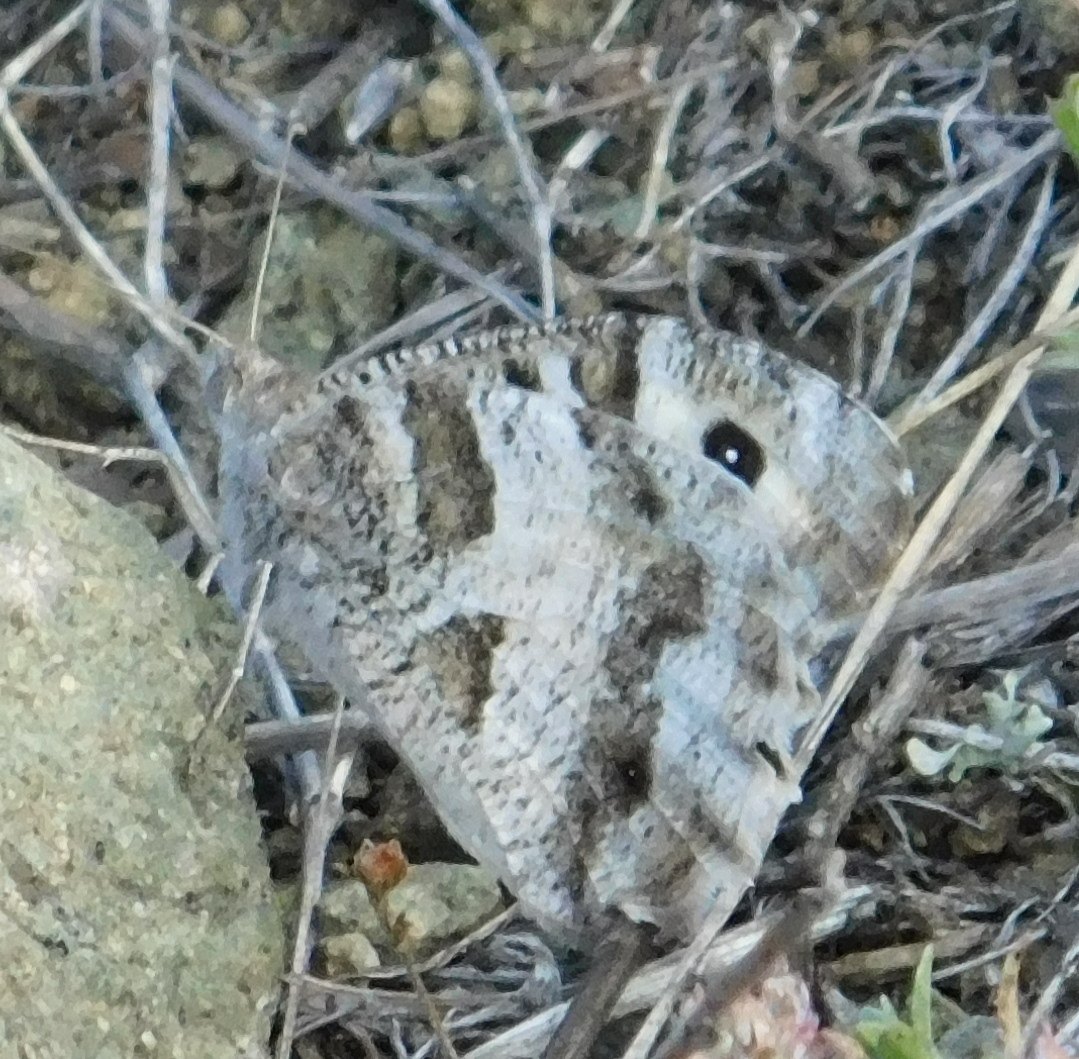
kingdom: Animalia
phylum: Arthropoda
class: Insecta
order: Lepidoptera
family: Nymphalidae
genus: Satyrus
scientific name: Satyrus briseis
